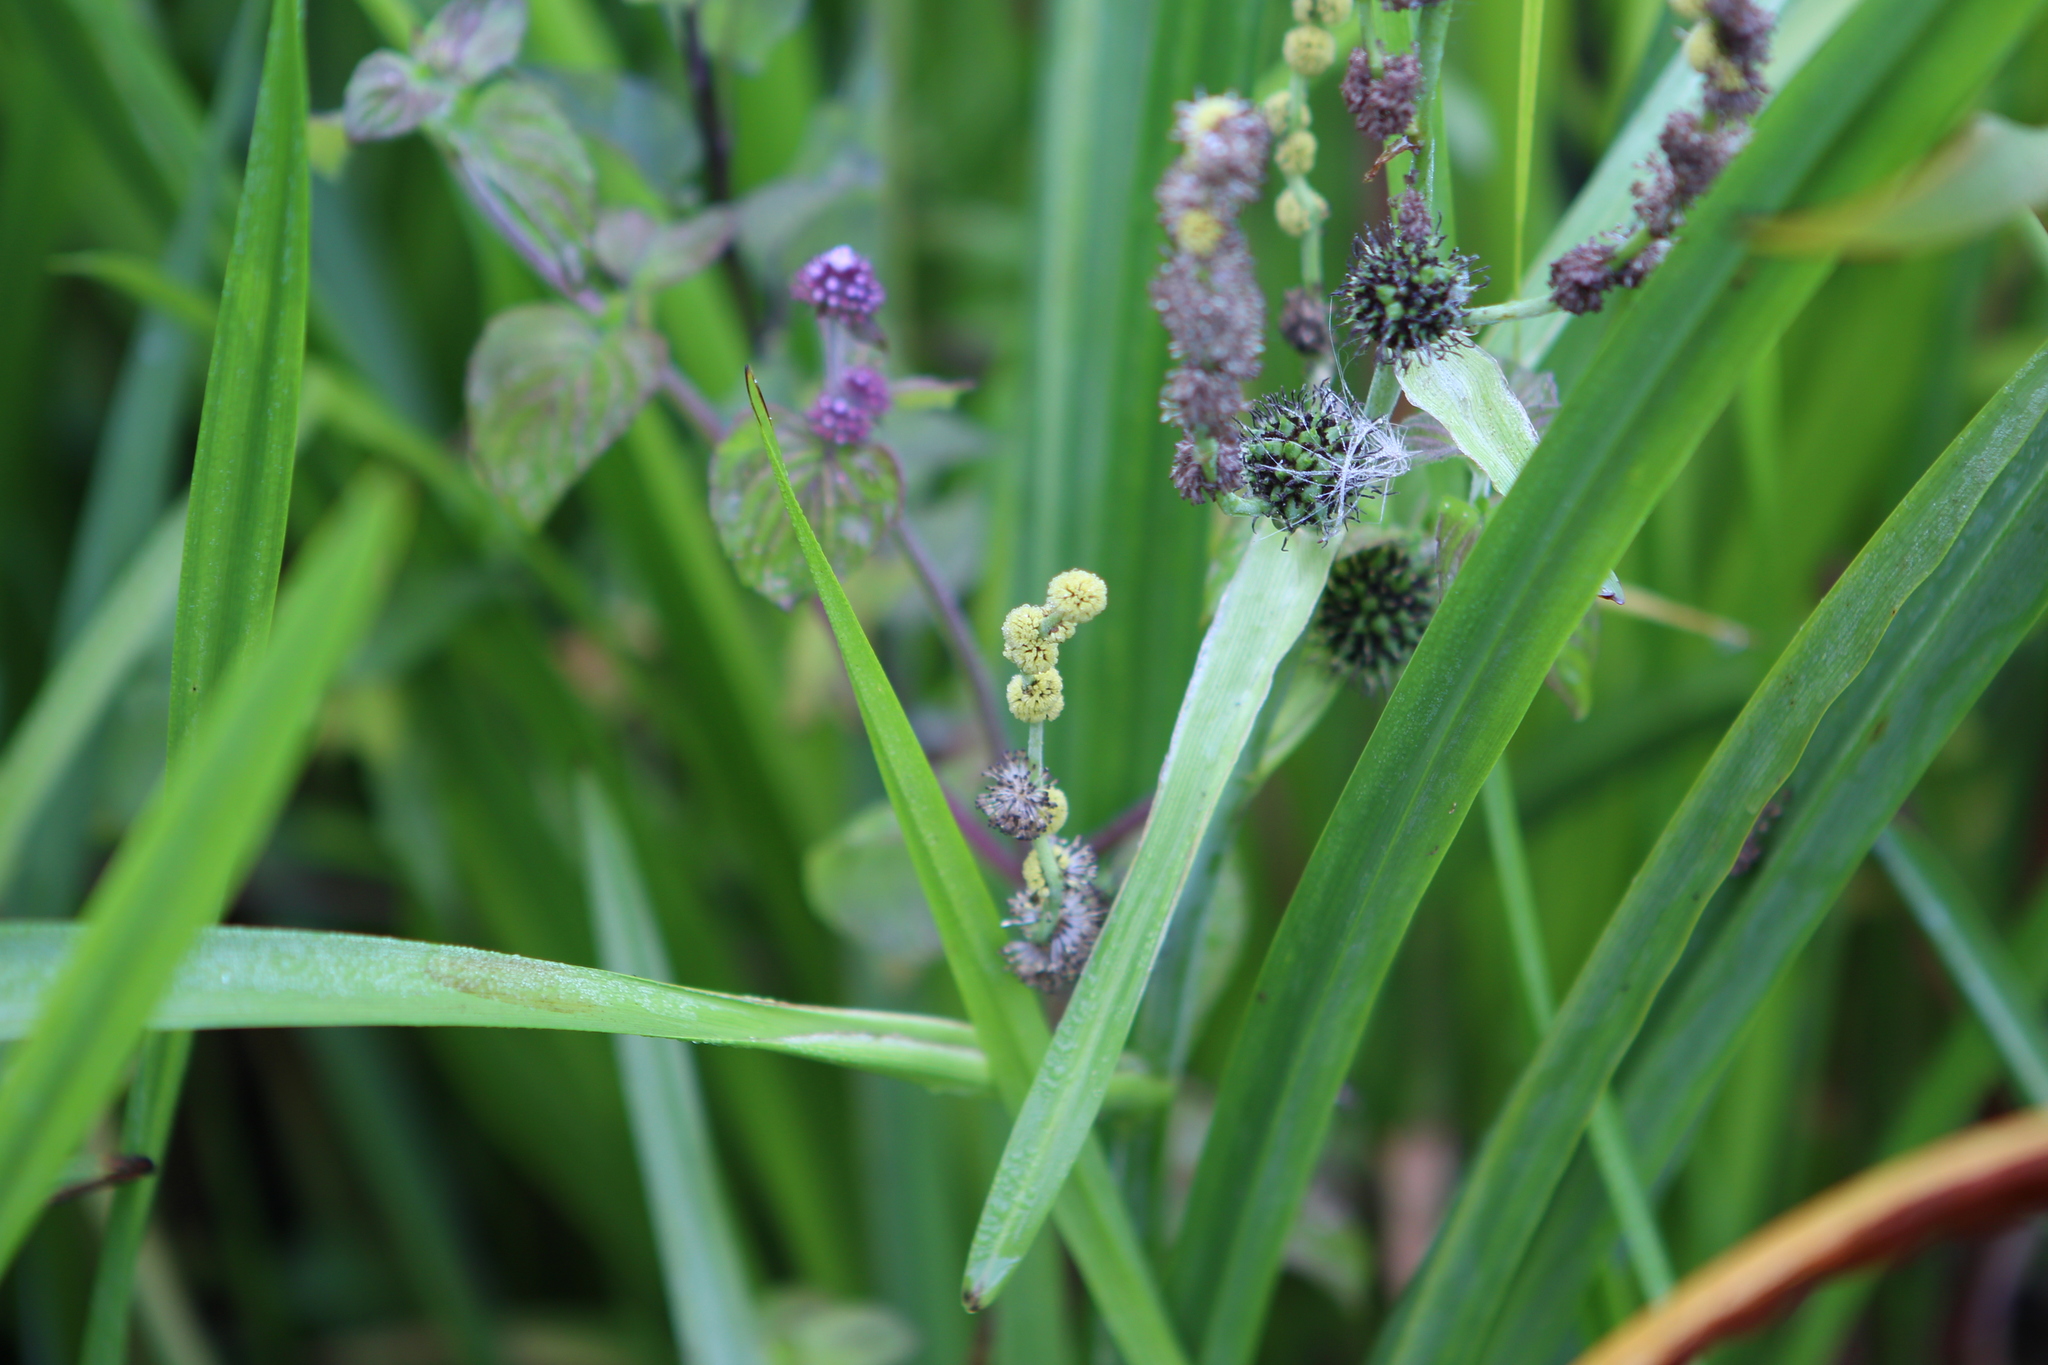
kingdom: Plantae
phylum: Tracheophyta
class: Liliopsida
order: Poales
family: Typhaceae
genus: Sparganium
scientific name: Sparganium erectum
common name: Branched bur-reed
